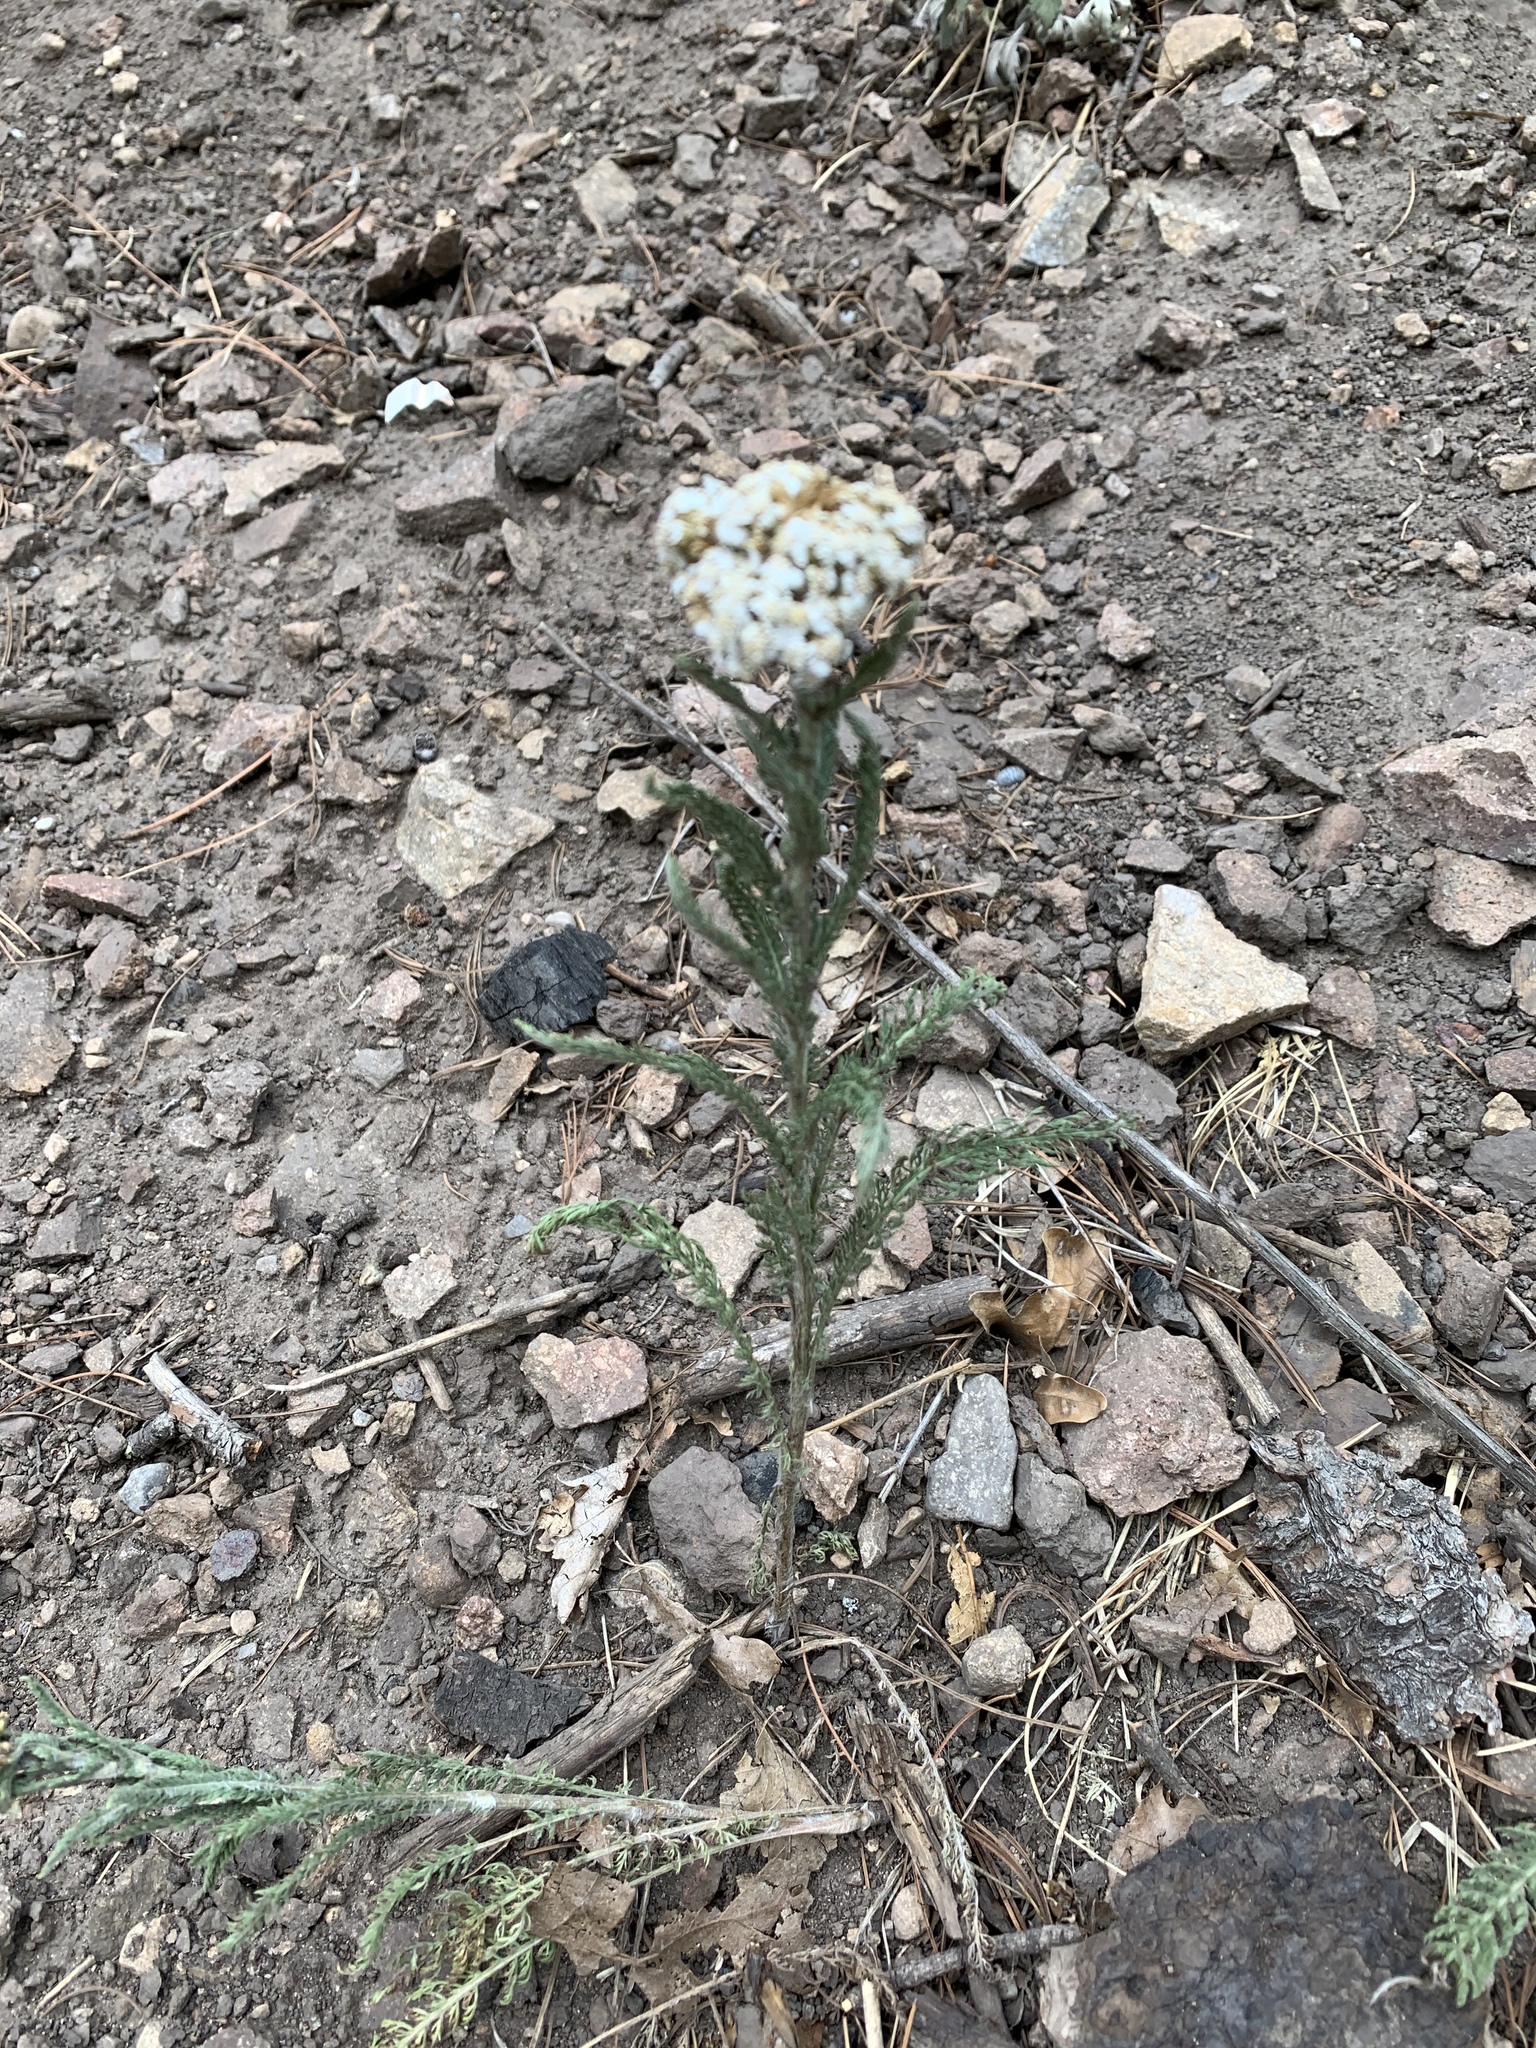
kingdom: Plantae
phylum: Tracheophyta
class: Magnoliopsida
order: Asterales
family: Asteraceae
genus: Achillea
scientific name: Achillea millefolium
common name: Yarrow
